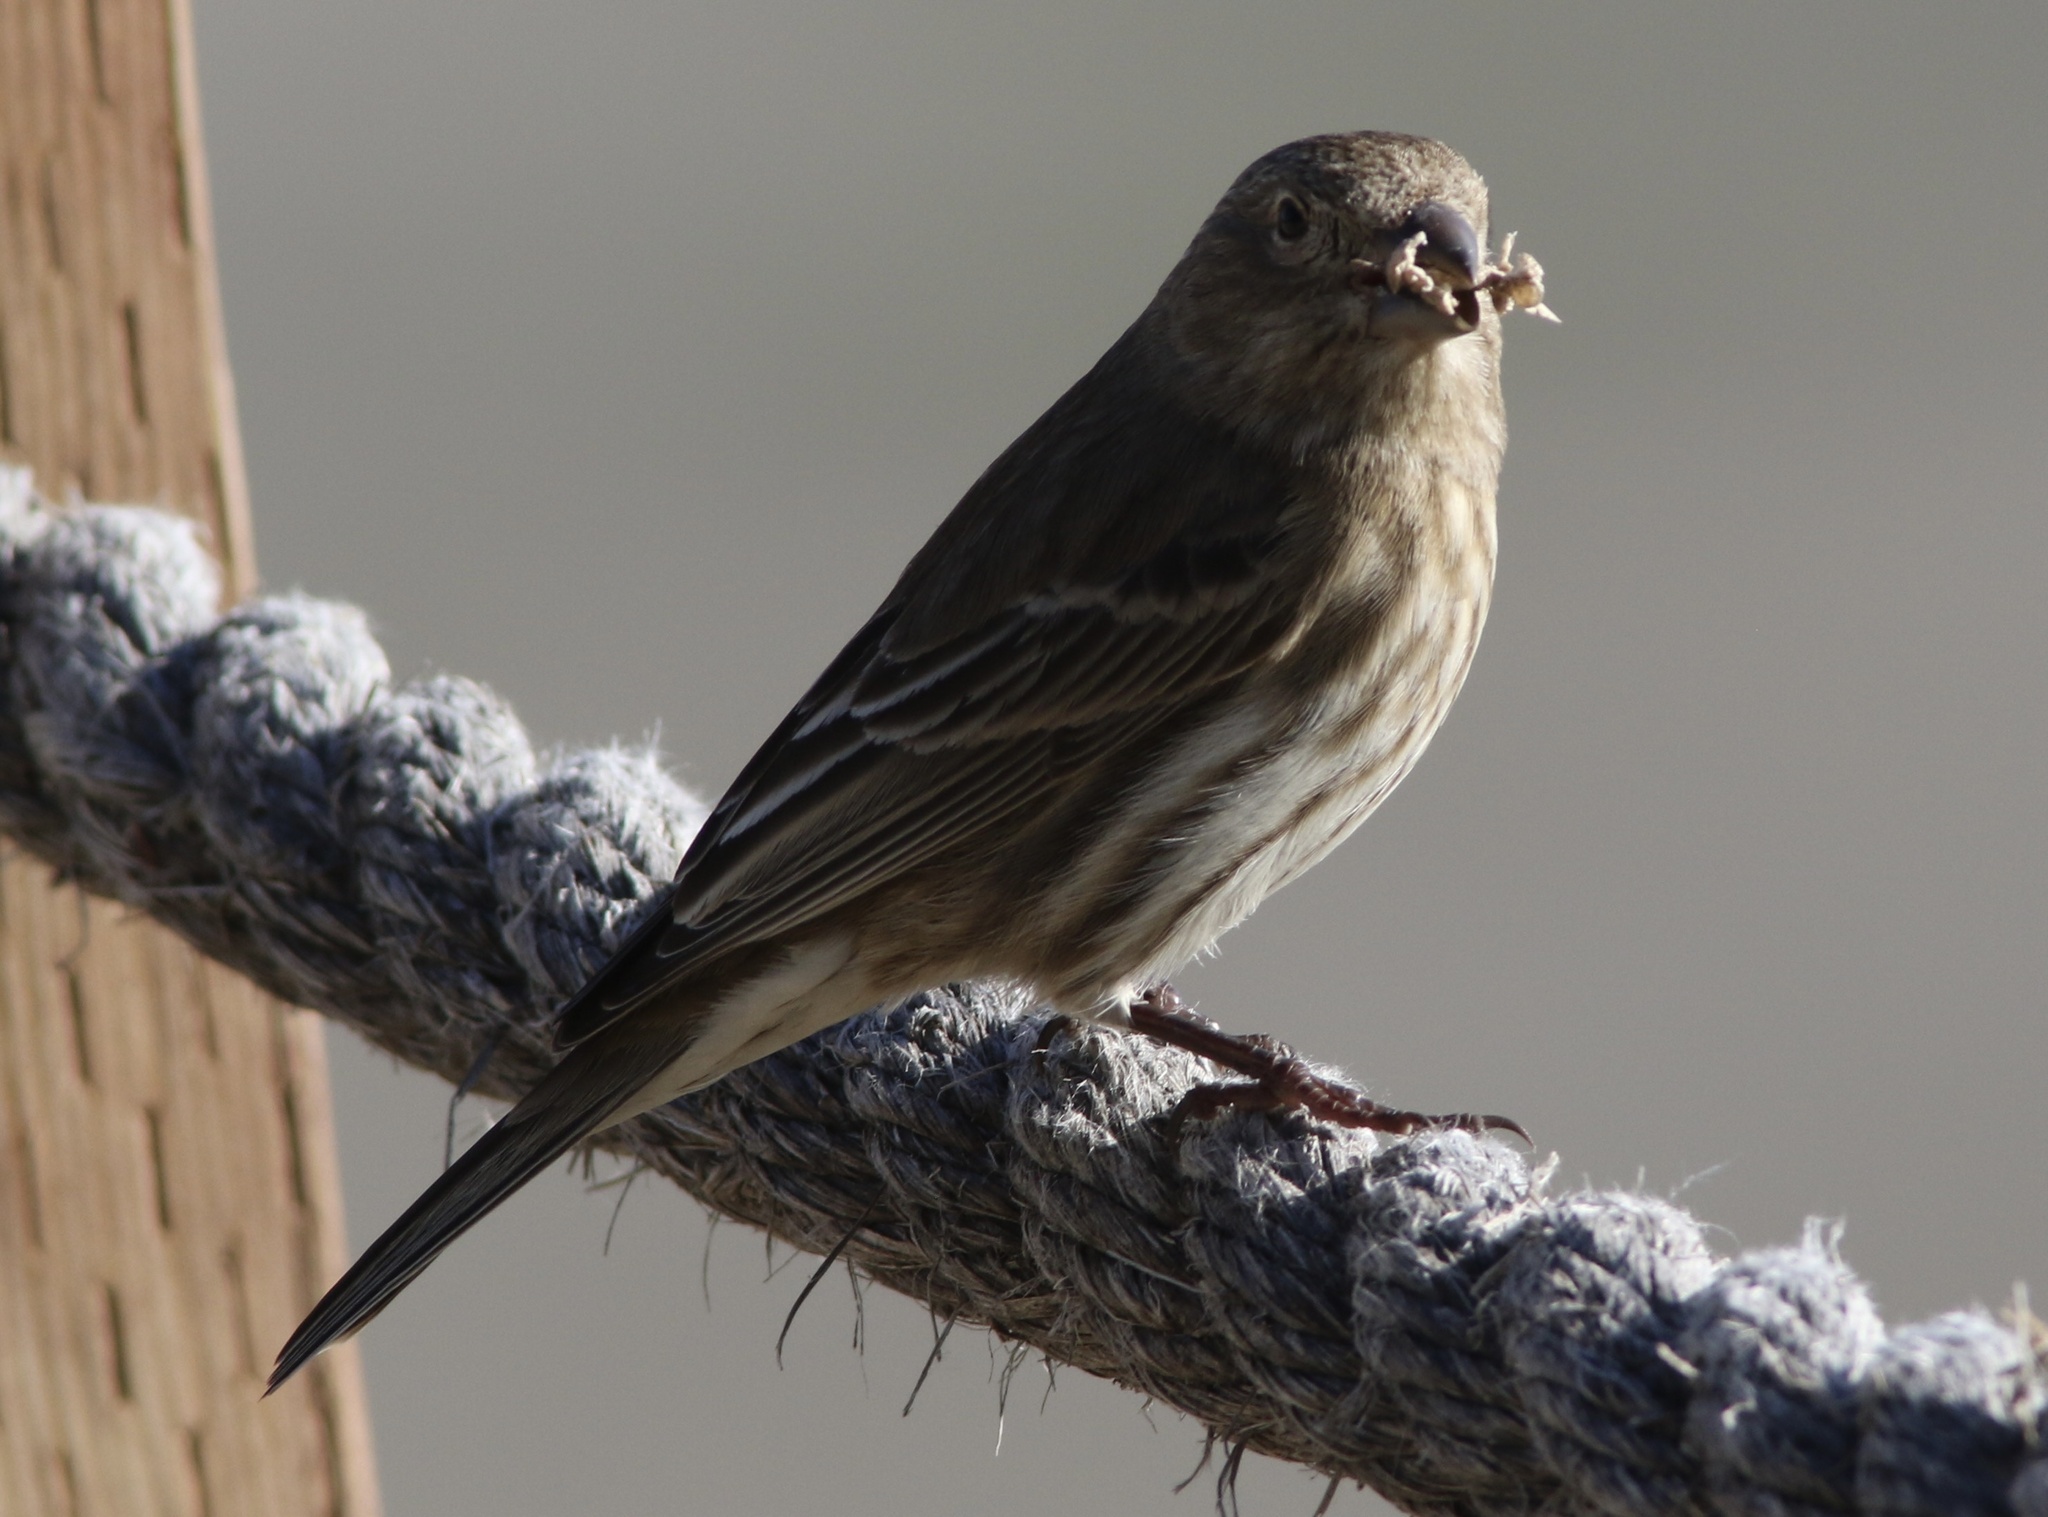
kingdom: Animalia
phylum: Chordata
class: Aves
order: Passeriformes
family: Fringillidae
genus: Haemorhous
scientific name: Haemorhous mexicanus
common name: House finch
